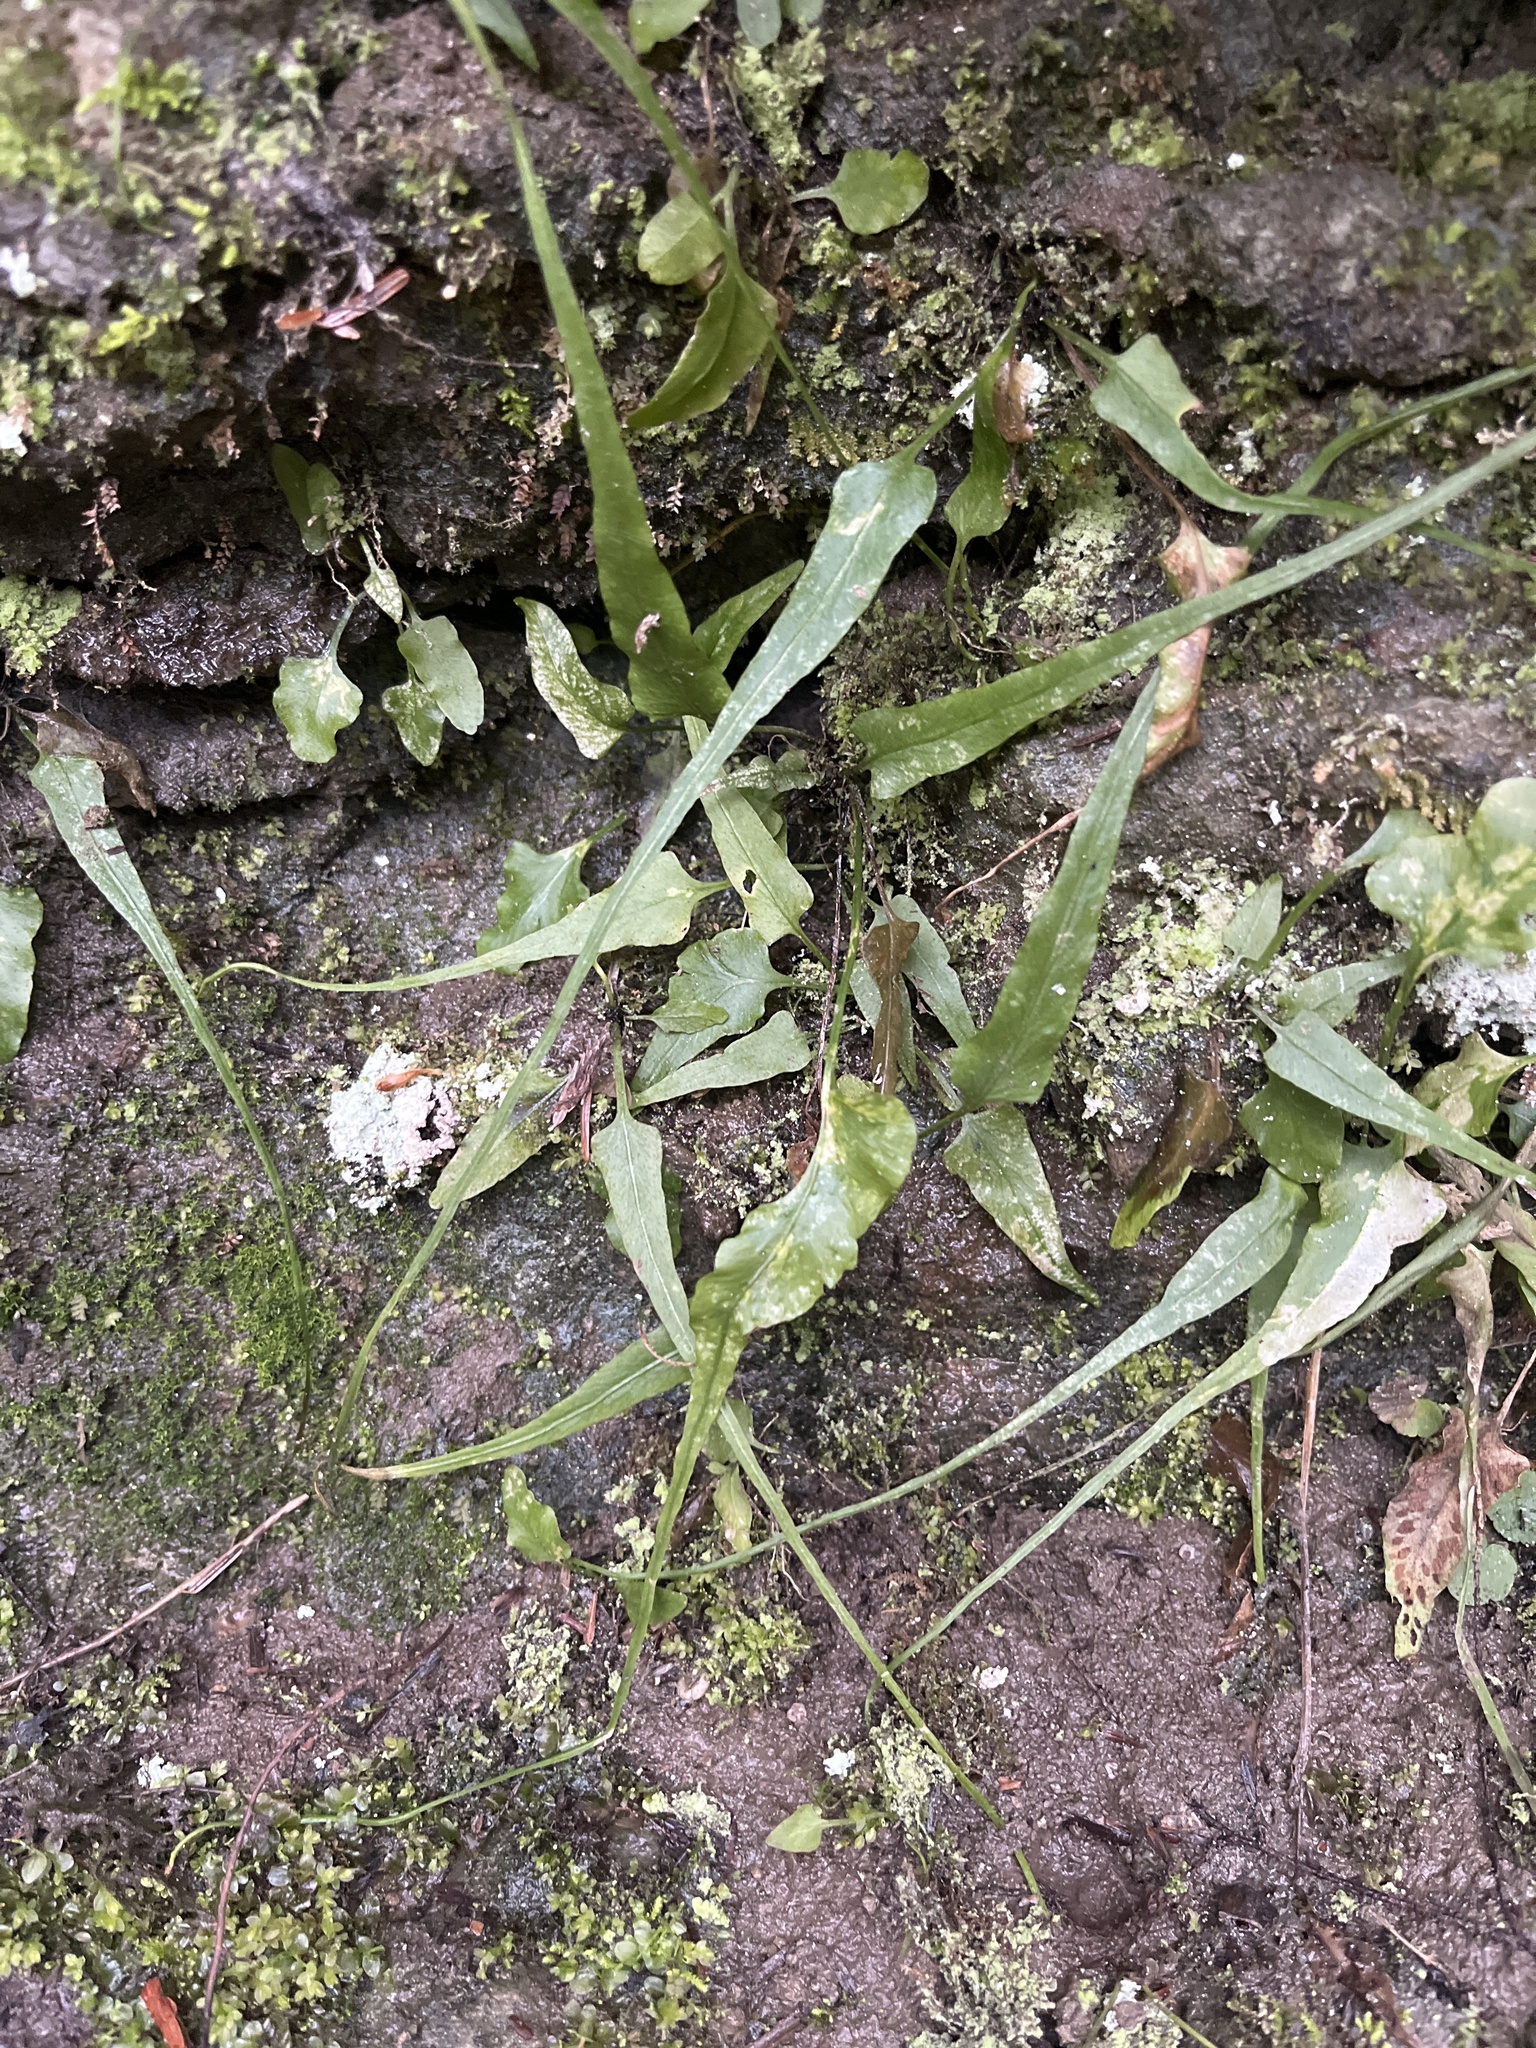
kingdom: Plantae
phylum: Tracheophyta
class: Polypodiopsida
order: Polypodiales
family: Aspleniaceae
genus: Asplenium
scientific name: Asplenium rhizophyllum
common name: Walking fern
